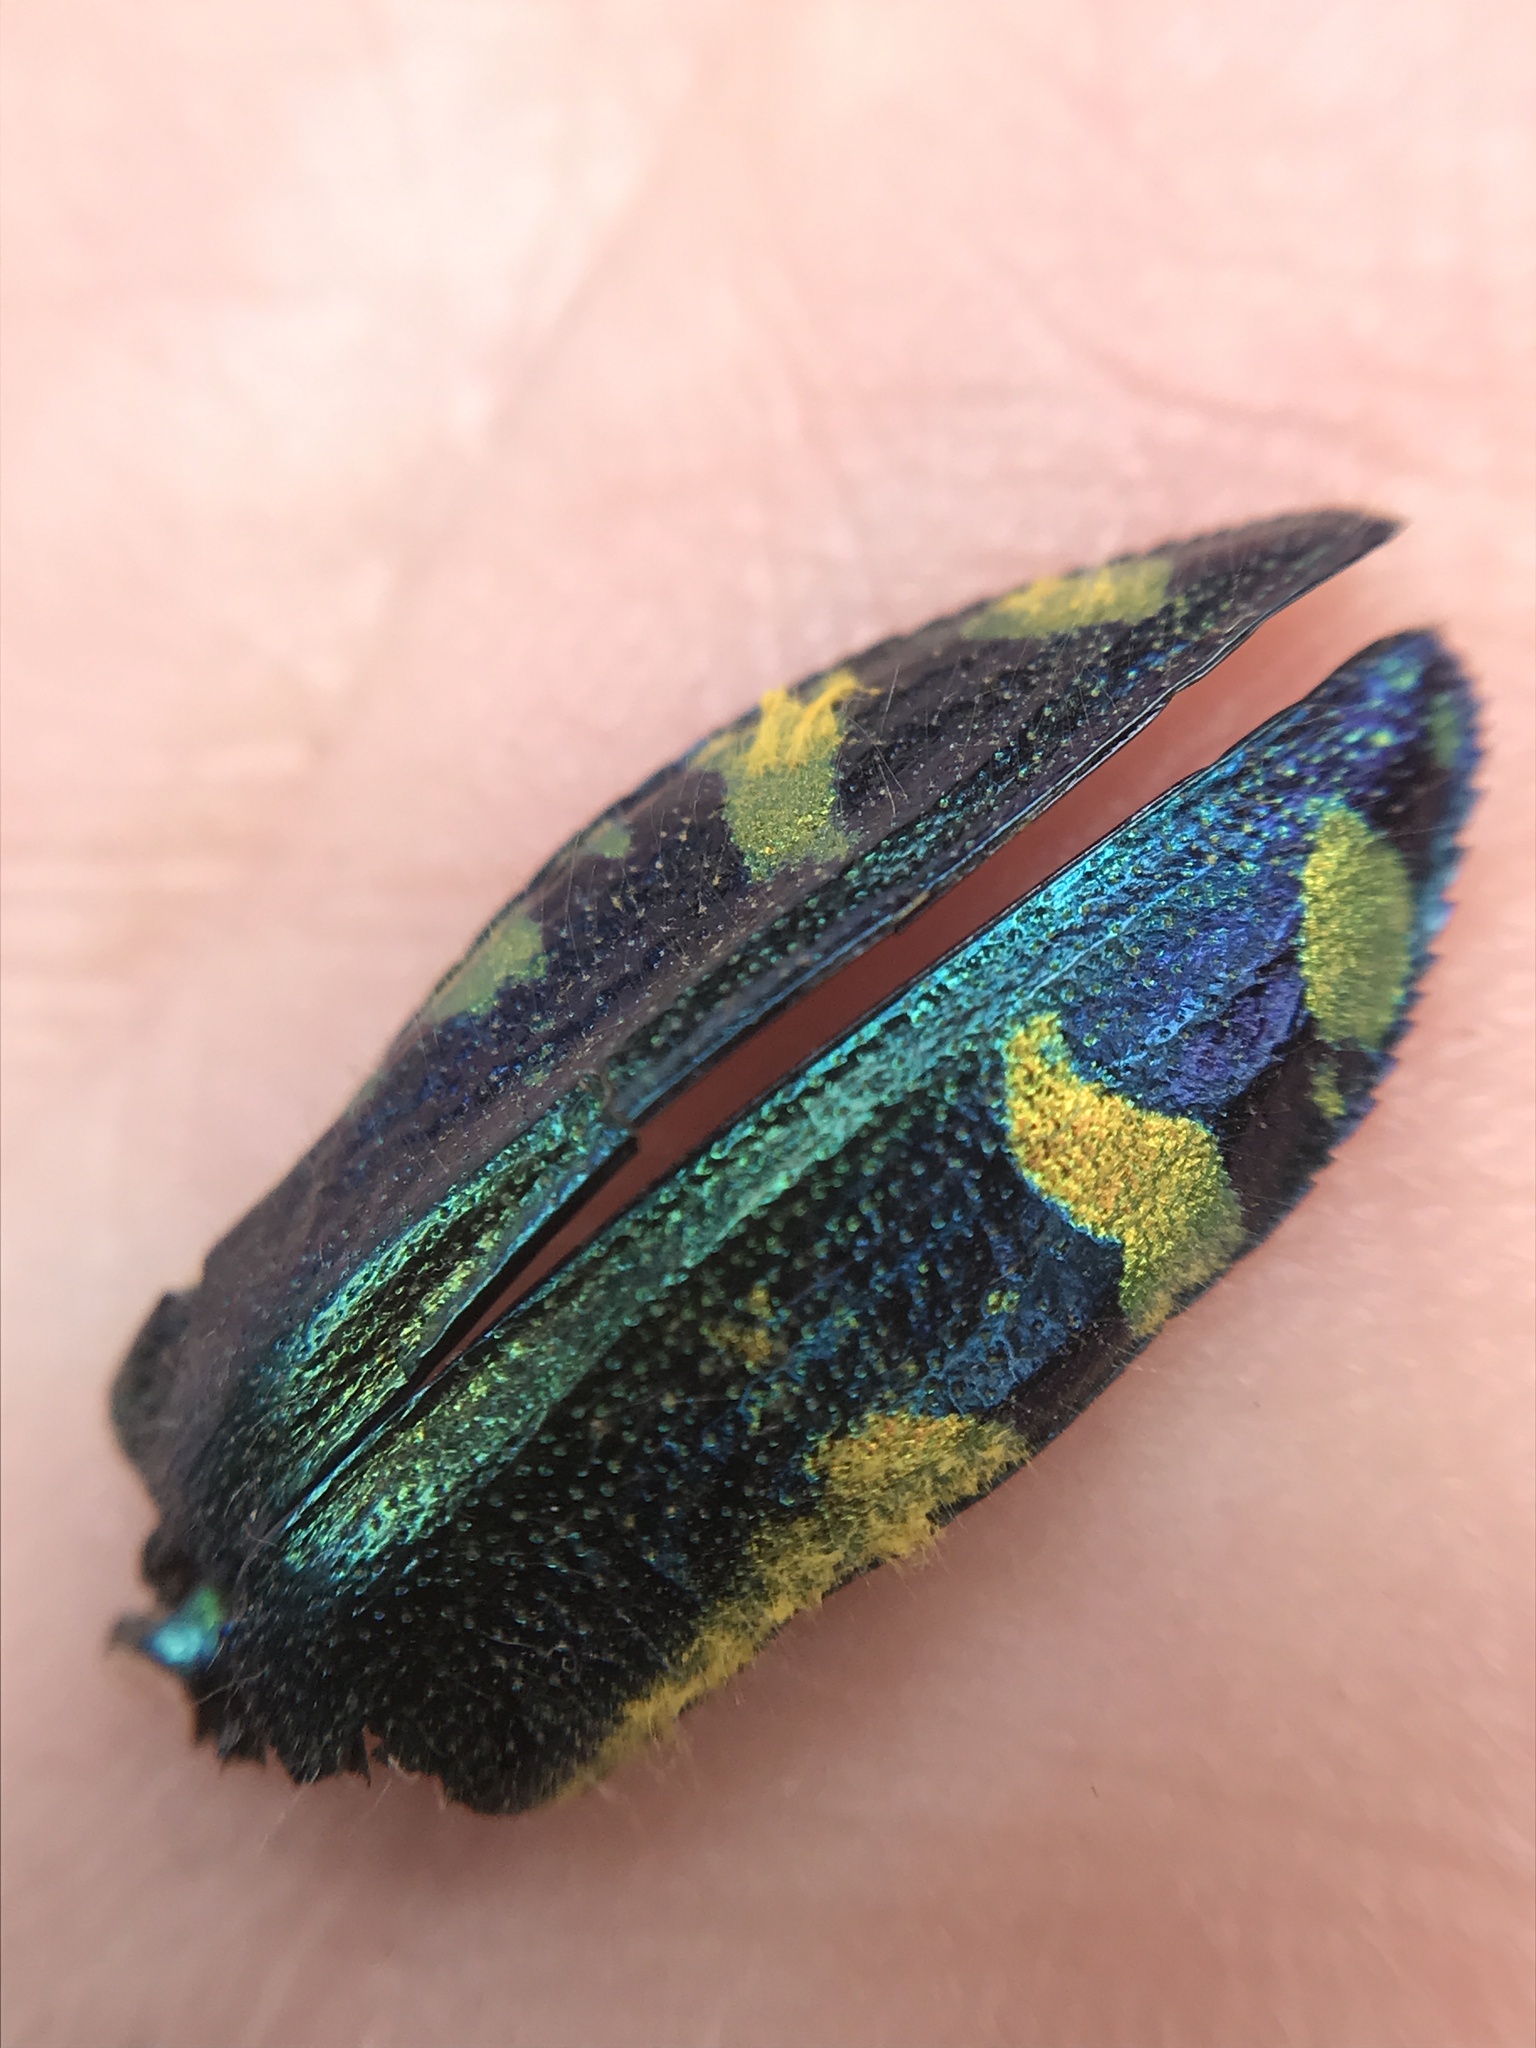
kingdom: Animalia
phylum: Arthropoda
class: Insecta
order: Coleoptera
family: Buprestidae
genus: Hypoprasis
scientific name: Hypoprasis elegans
